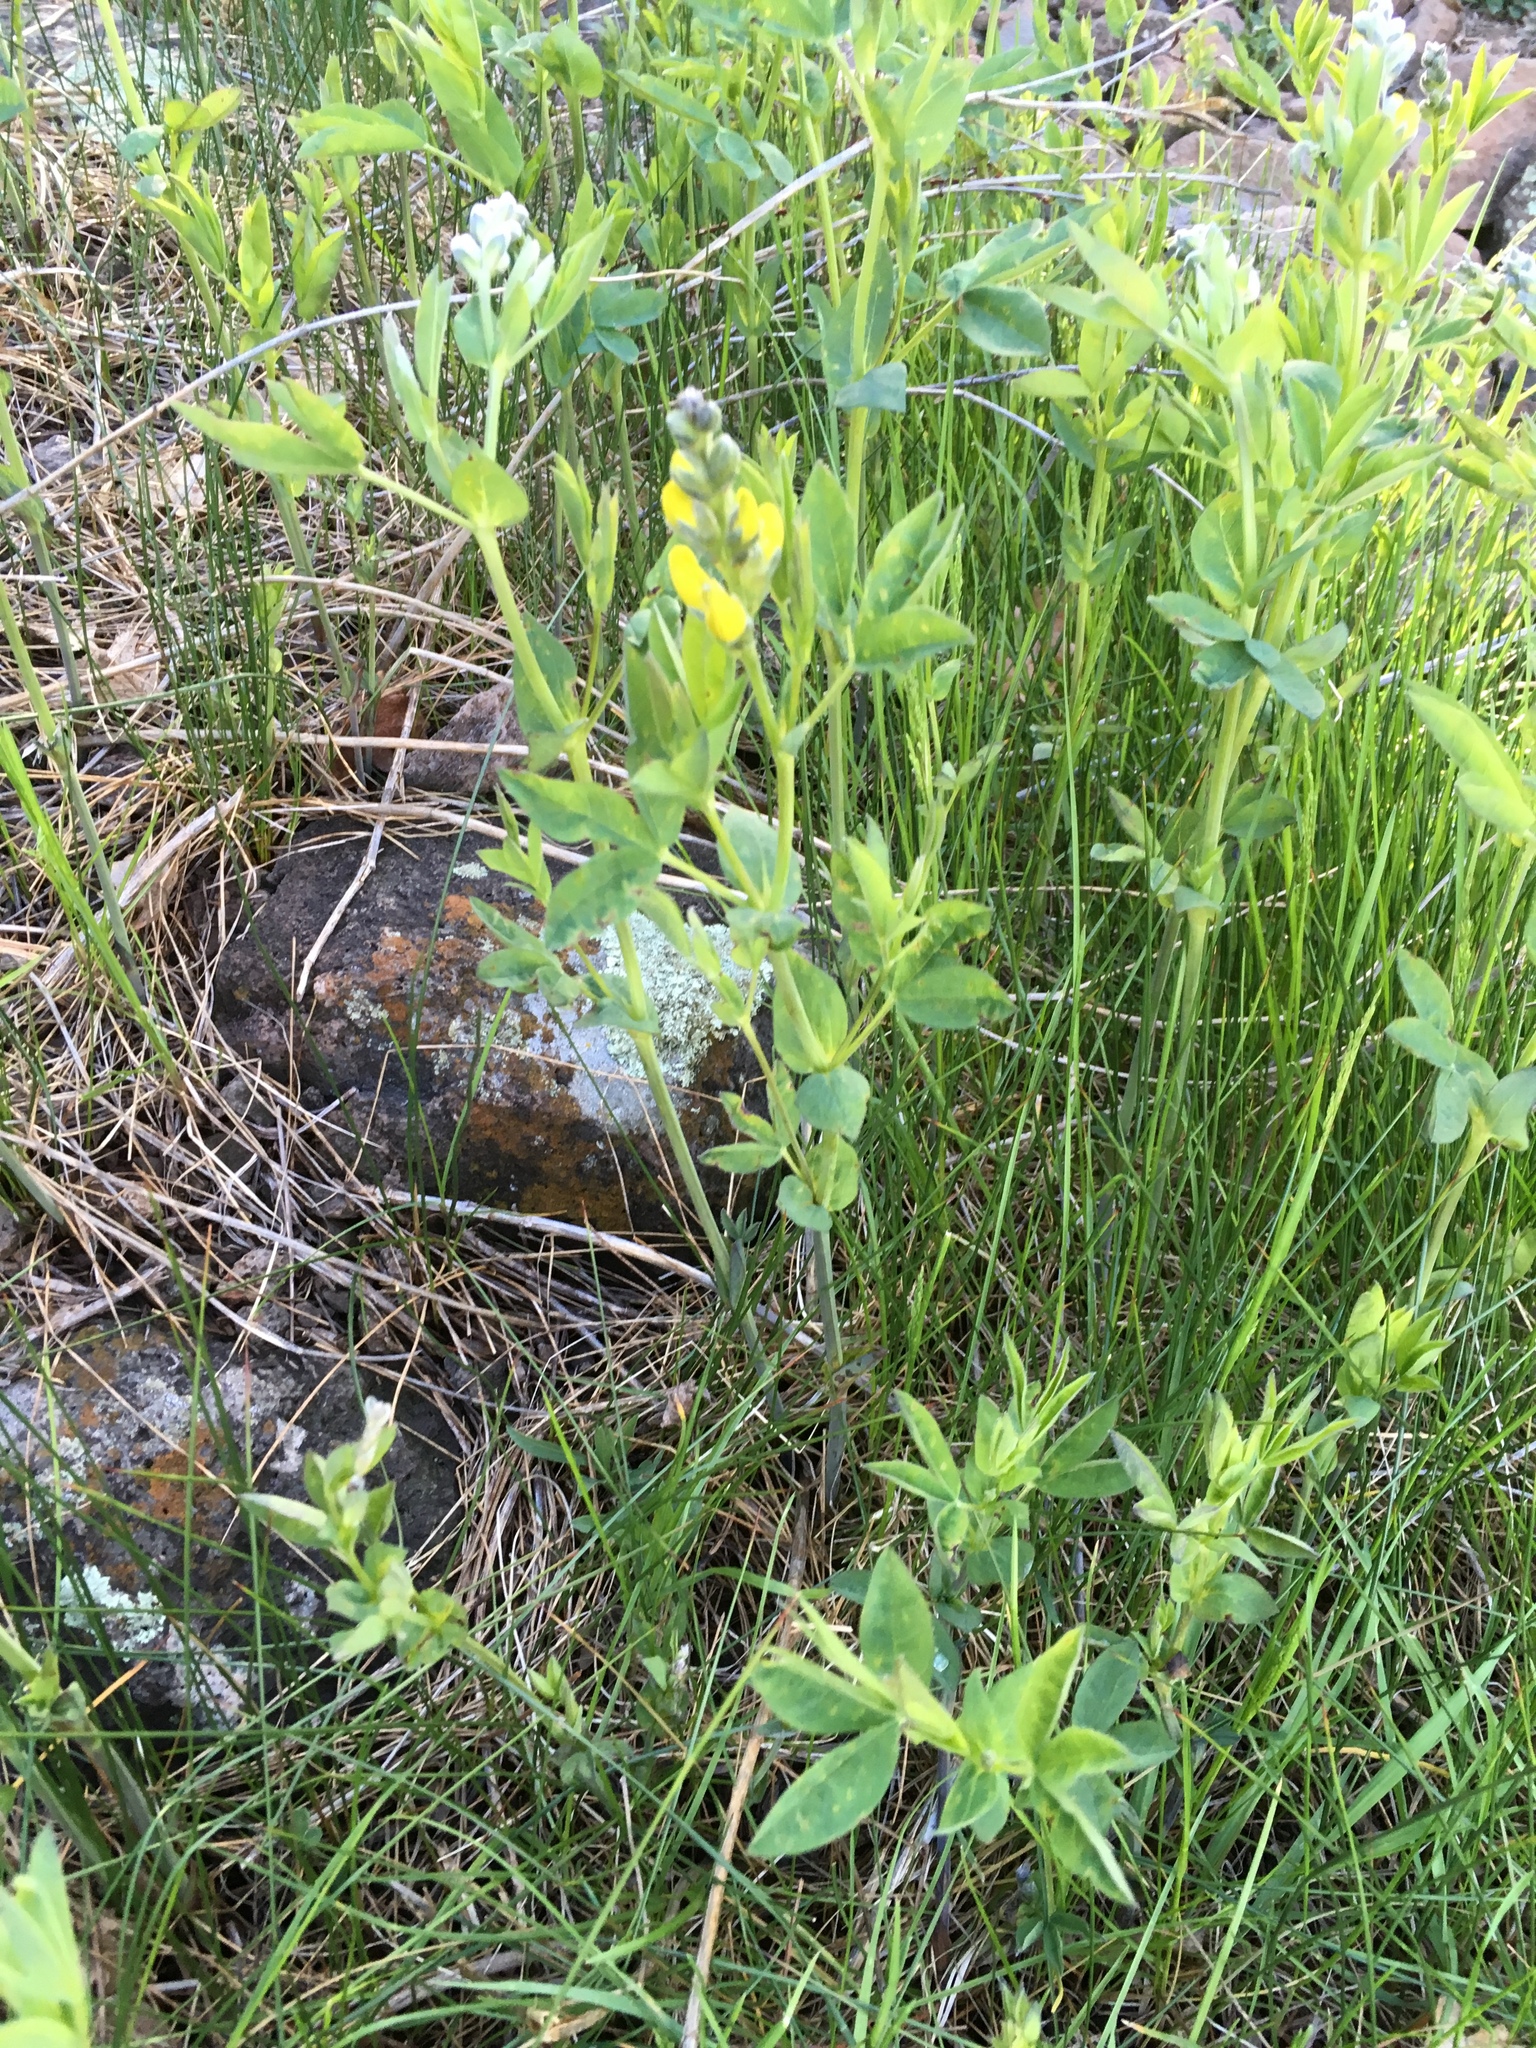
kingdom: Plantae
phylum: Tracheophyta
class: Magnoliopsida
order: Fabales
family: Fabaceae
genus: Thermopsis
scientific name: Thermopsis montana
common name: False lupin
